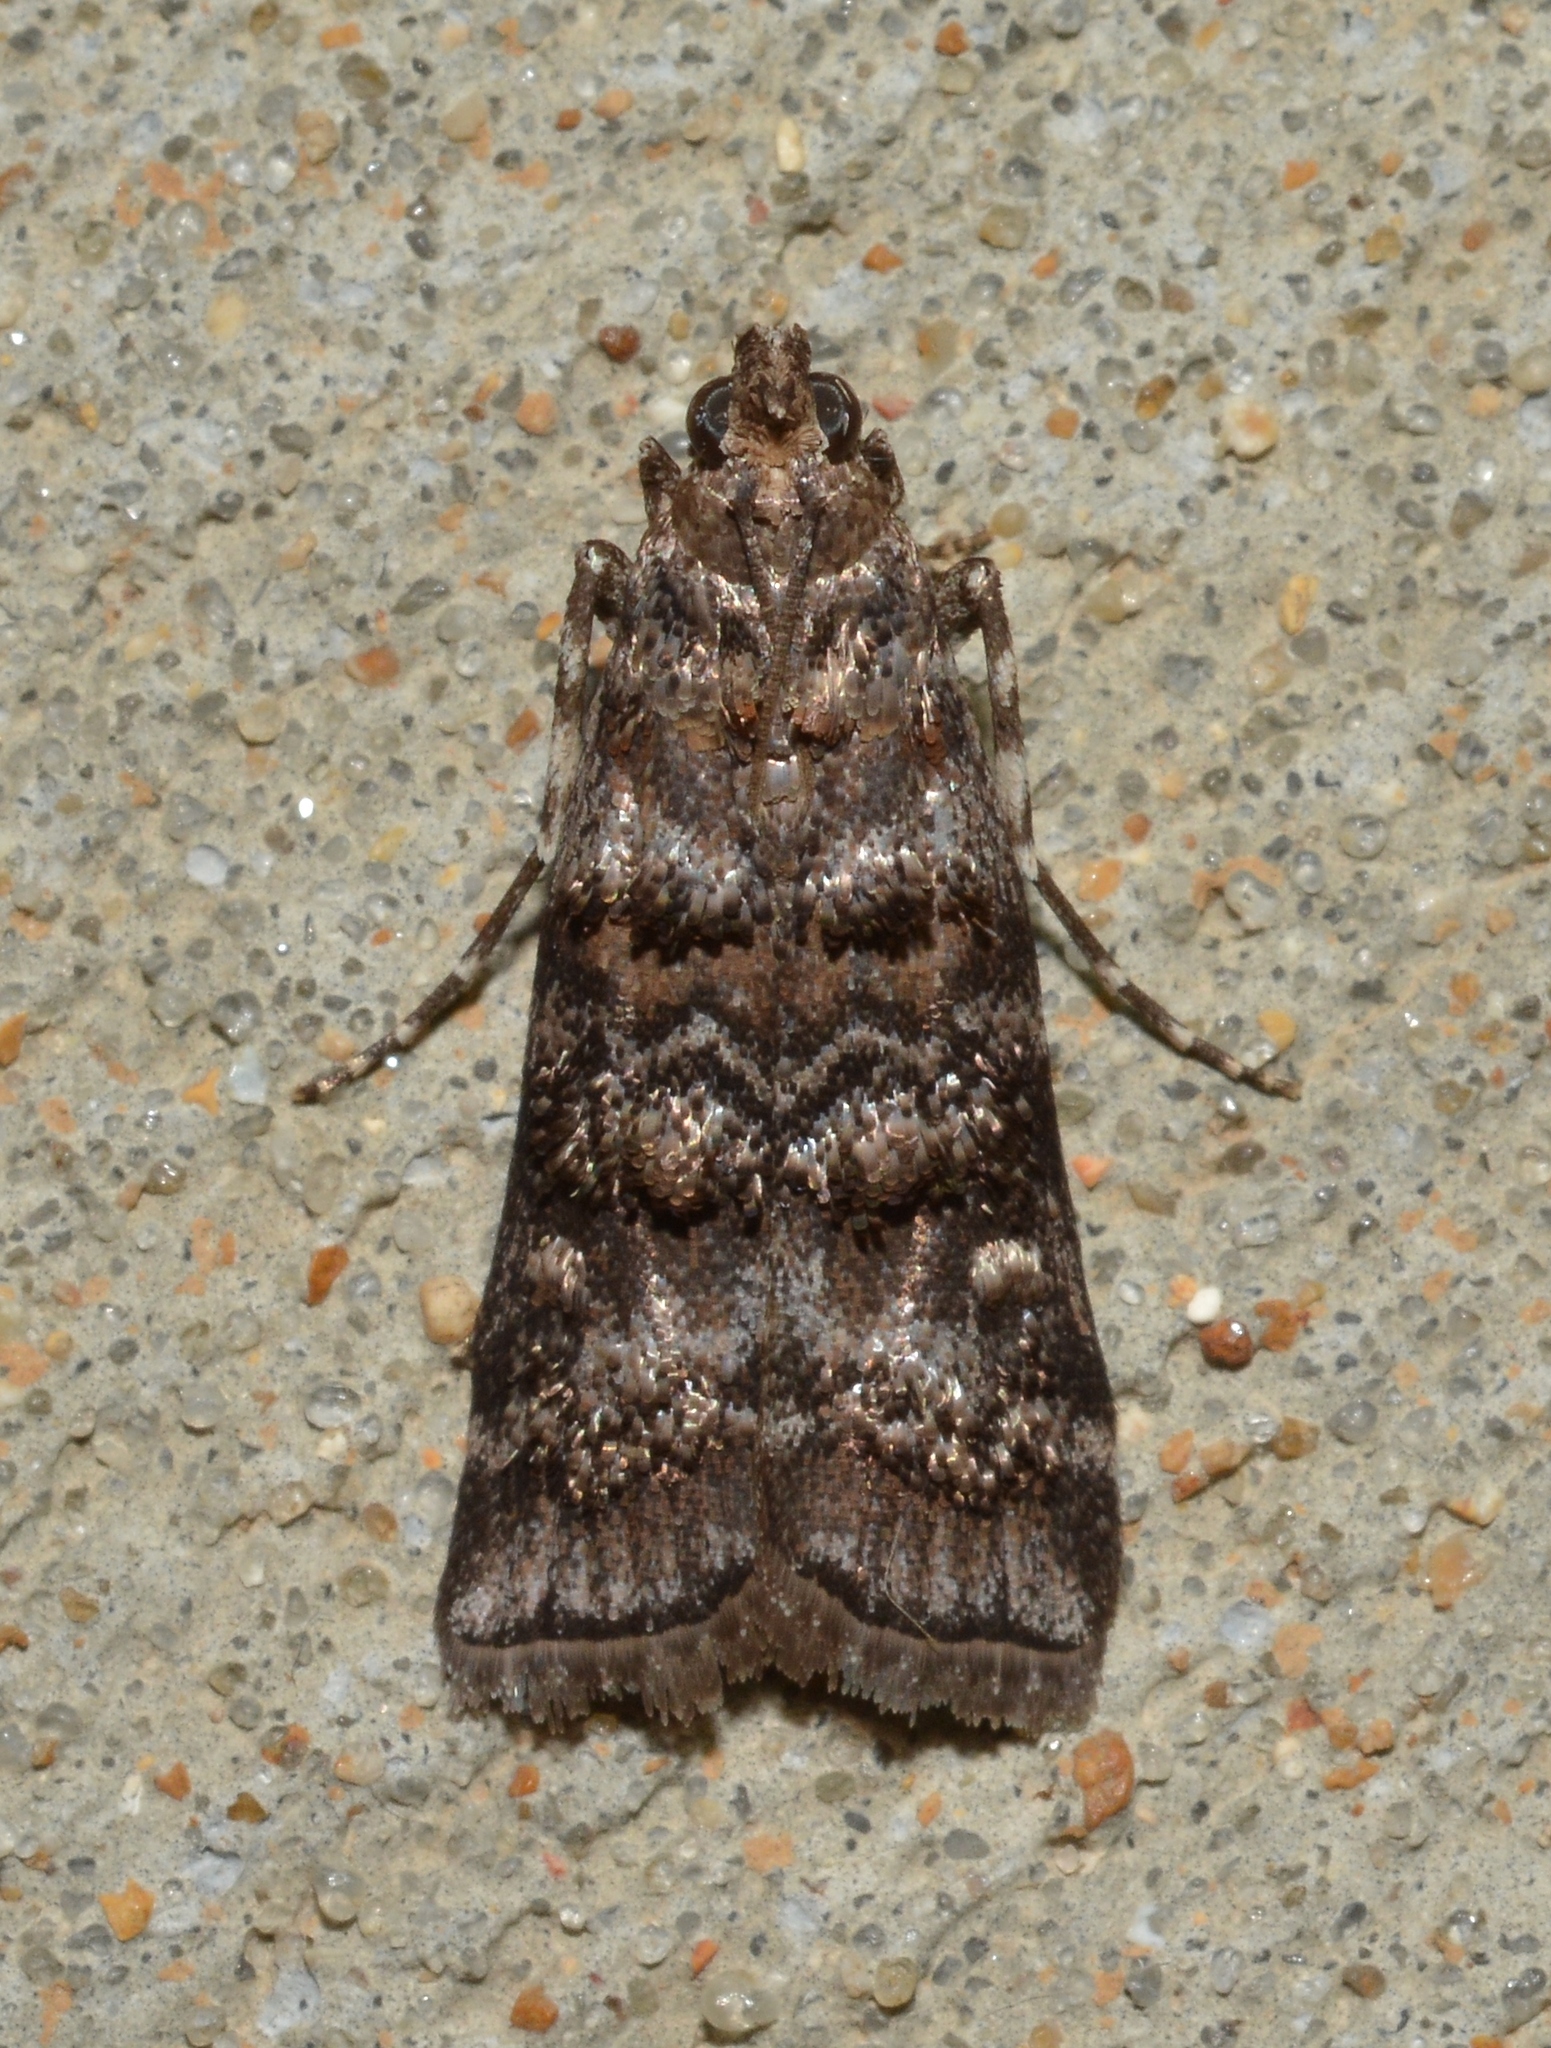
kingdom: Animalia
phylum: Arthropoda
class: Insecta
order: Lepidoptera
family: Pyralidae
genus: Dioryctria
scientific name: Dioryctria amatella
